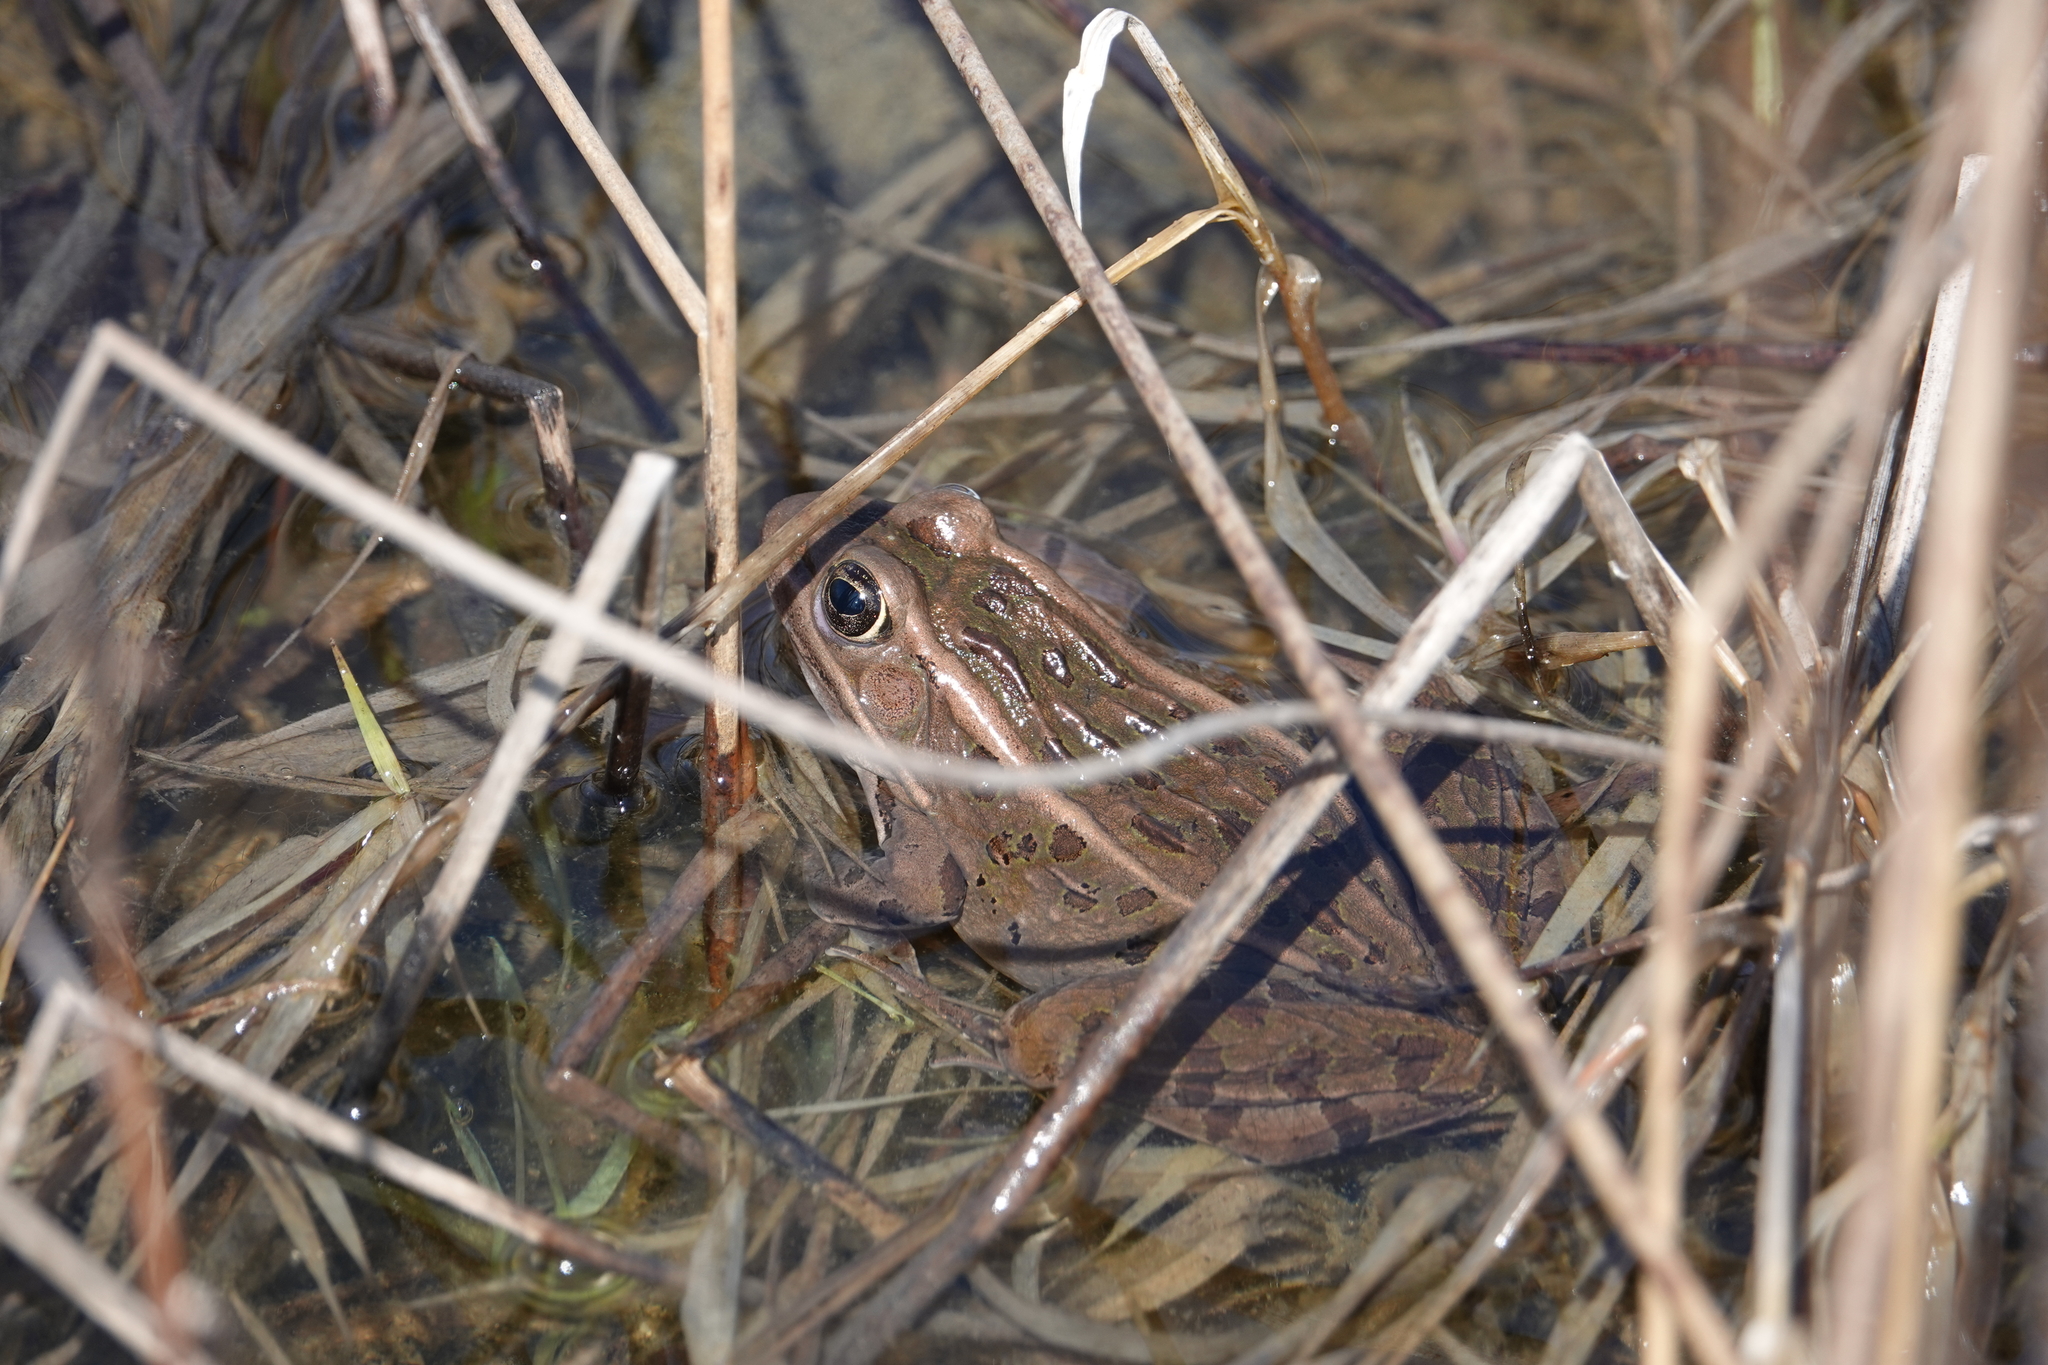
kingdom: Animalia
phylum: Chordata
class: Amphibia
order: Anura
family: Ranidae
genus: Lithobates
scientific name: Lithobates pipiens
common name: Northern leopard frog
